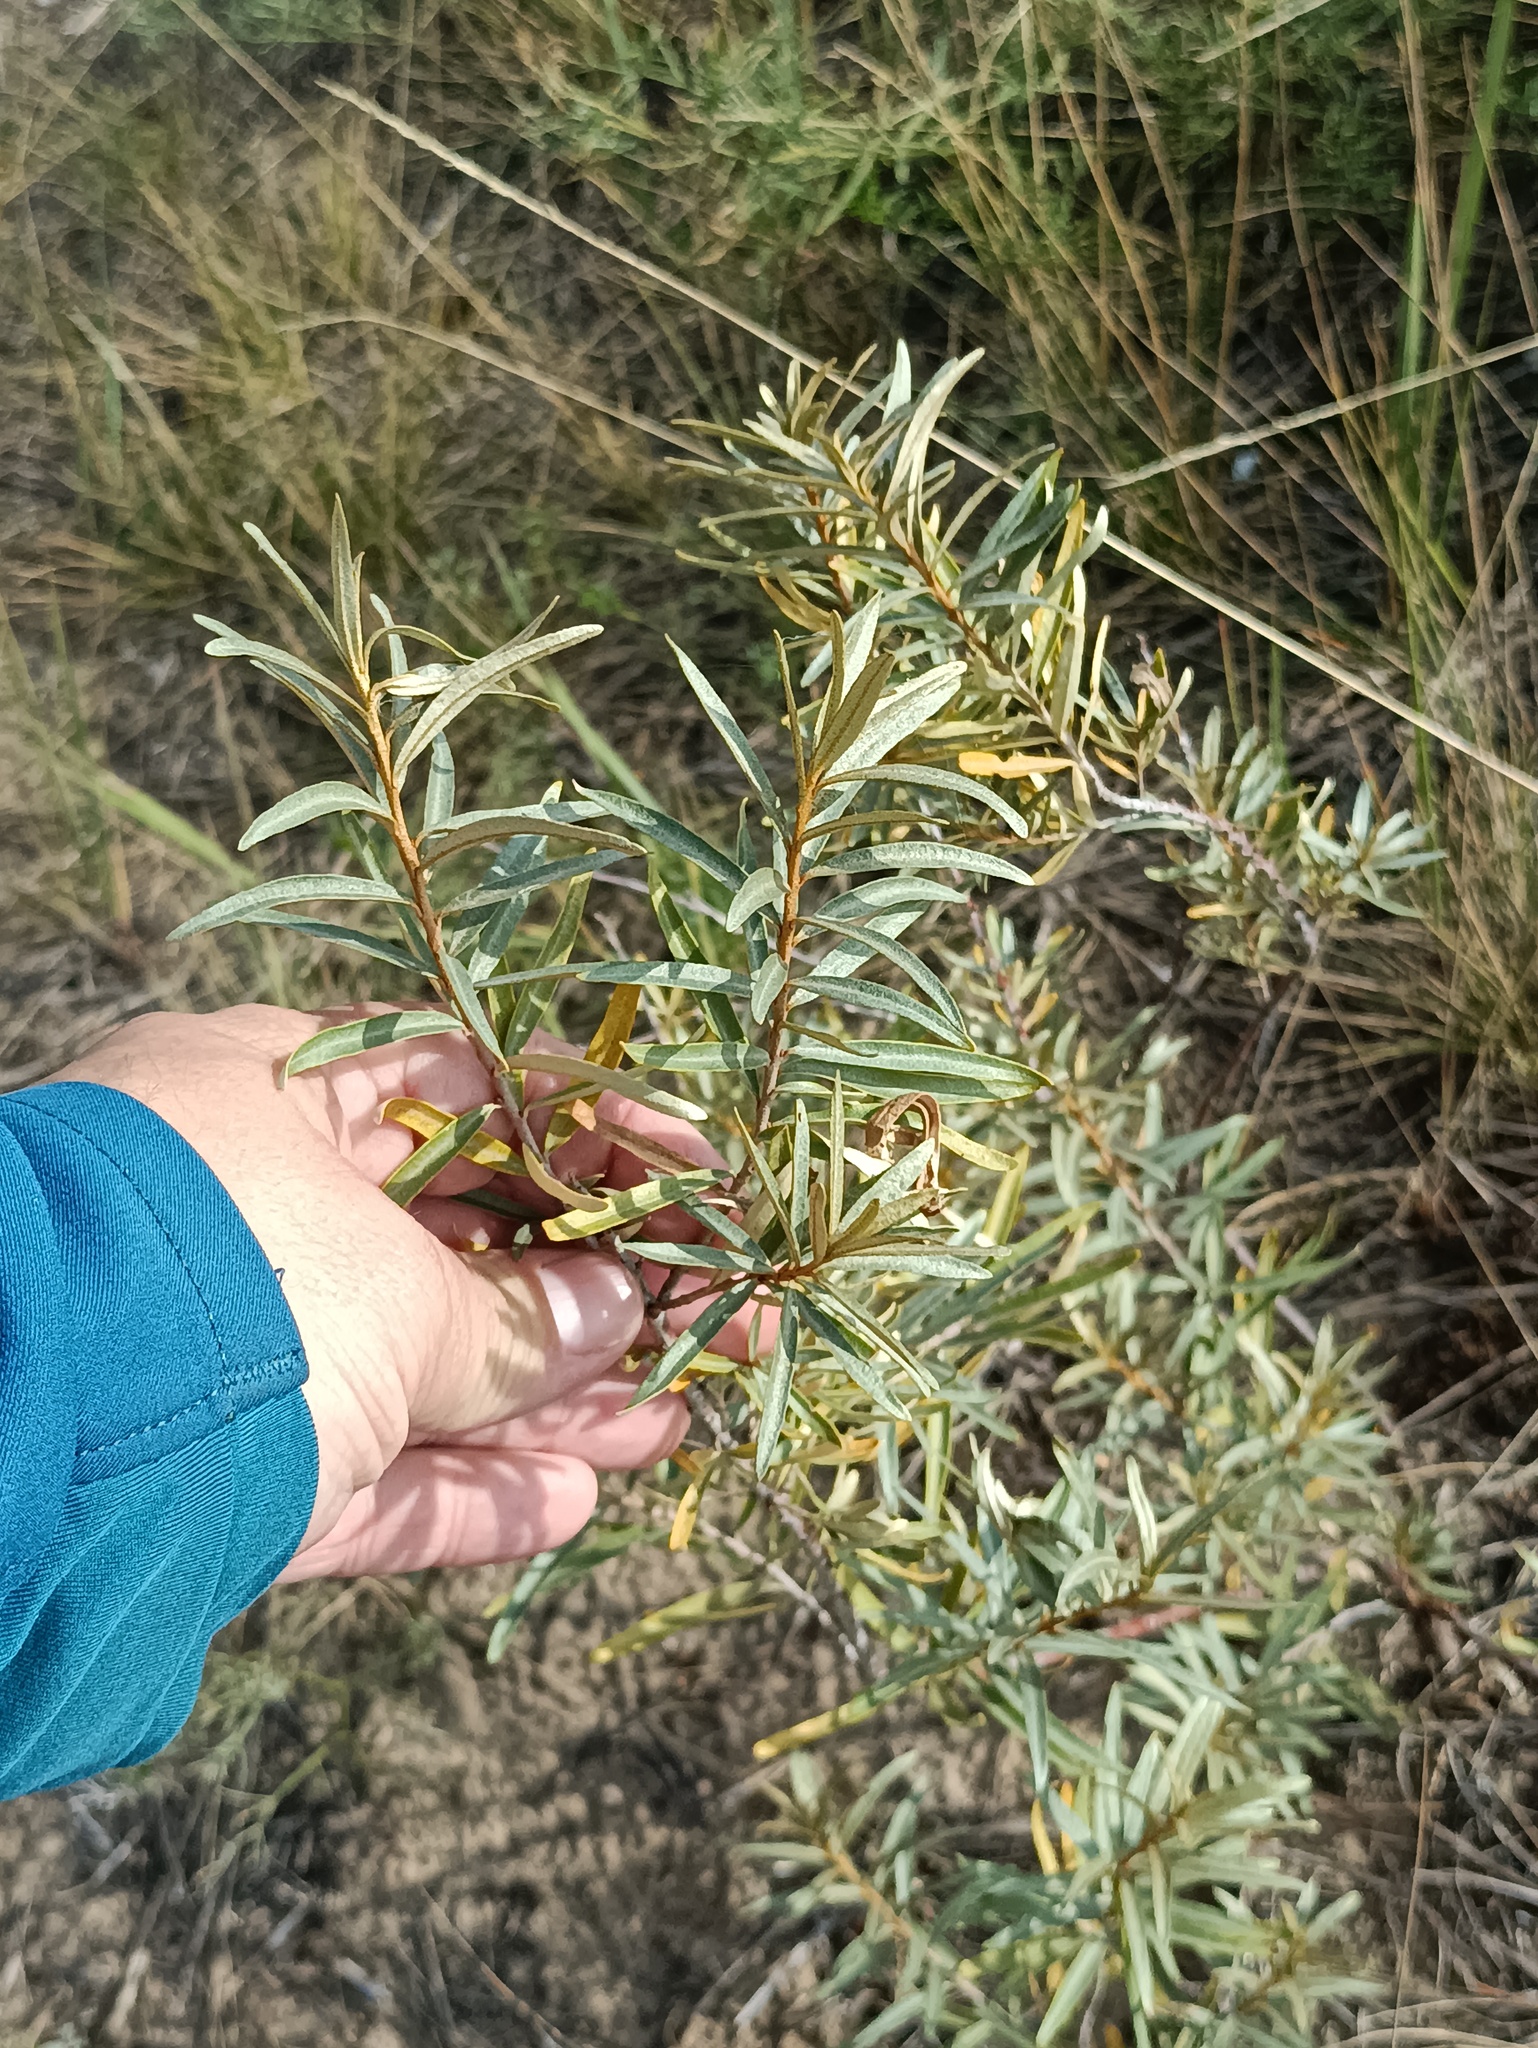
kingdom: Plantae
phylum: Tracheophyta
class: Magnoliopsida
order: Rosales
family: Elaeagnaceae
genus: Hippophae
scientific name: Hippophae rhamnoides
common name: Sea-buckthorn
